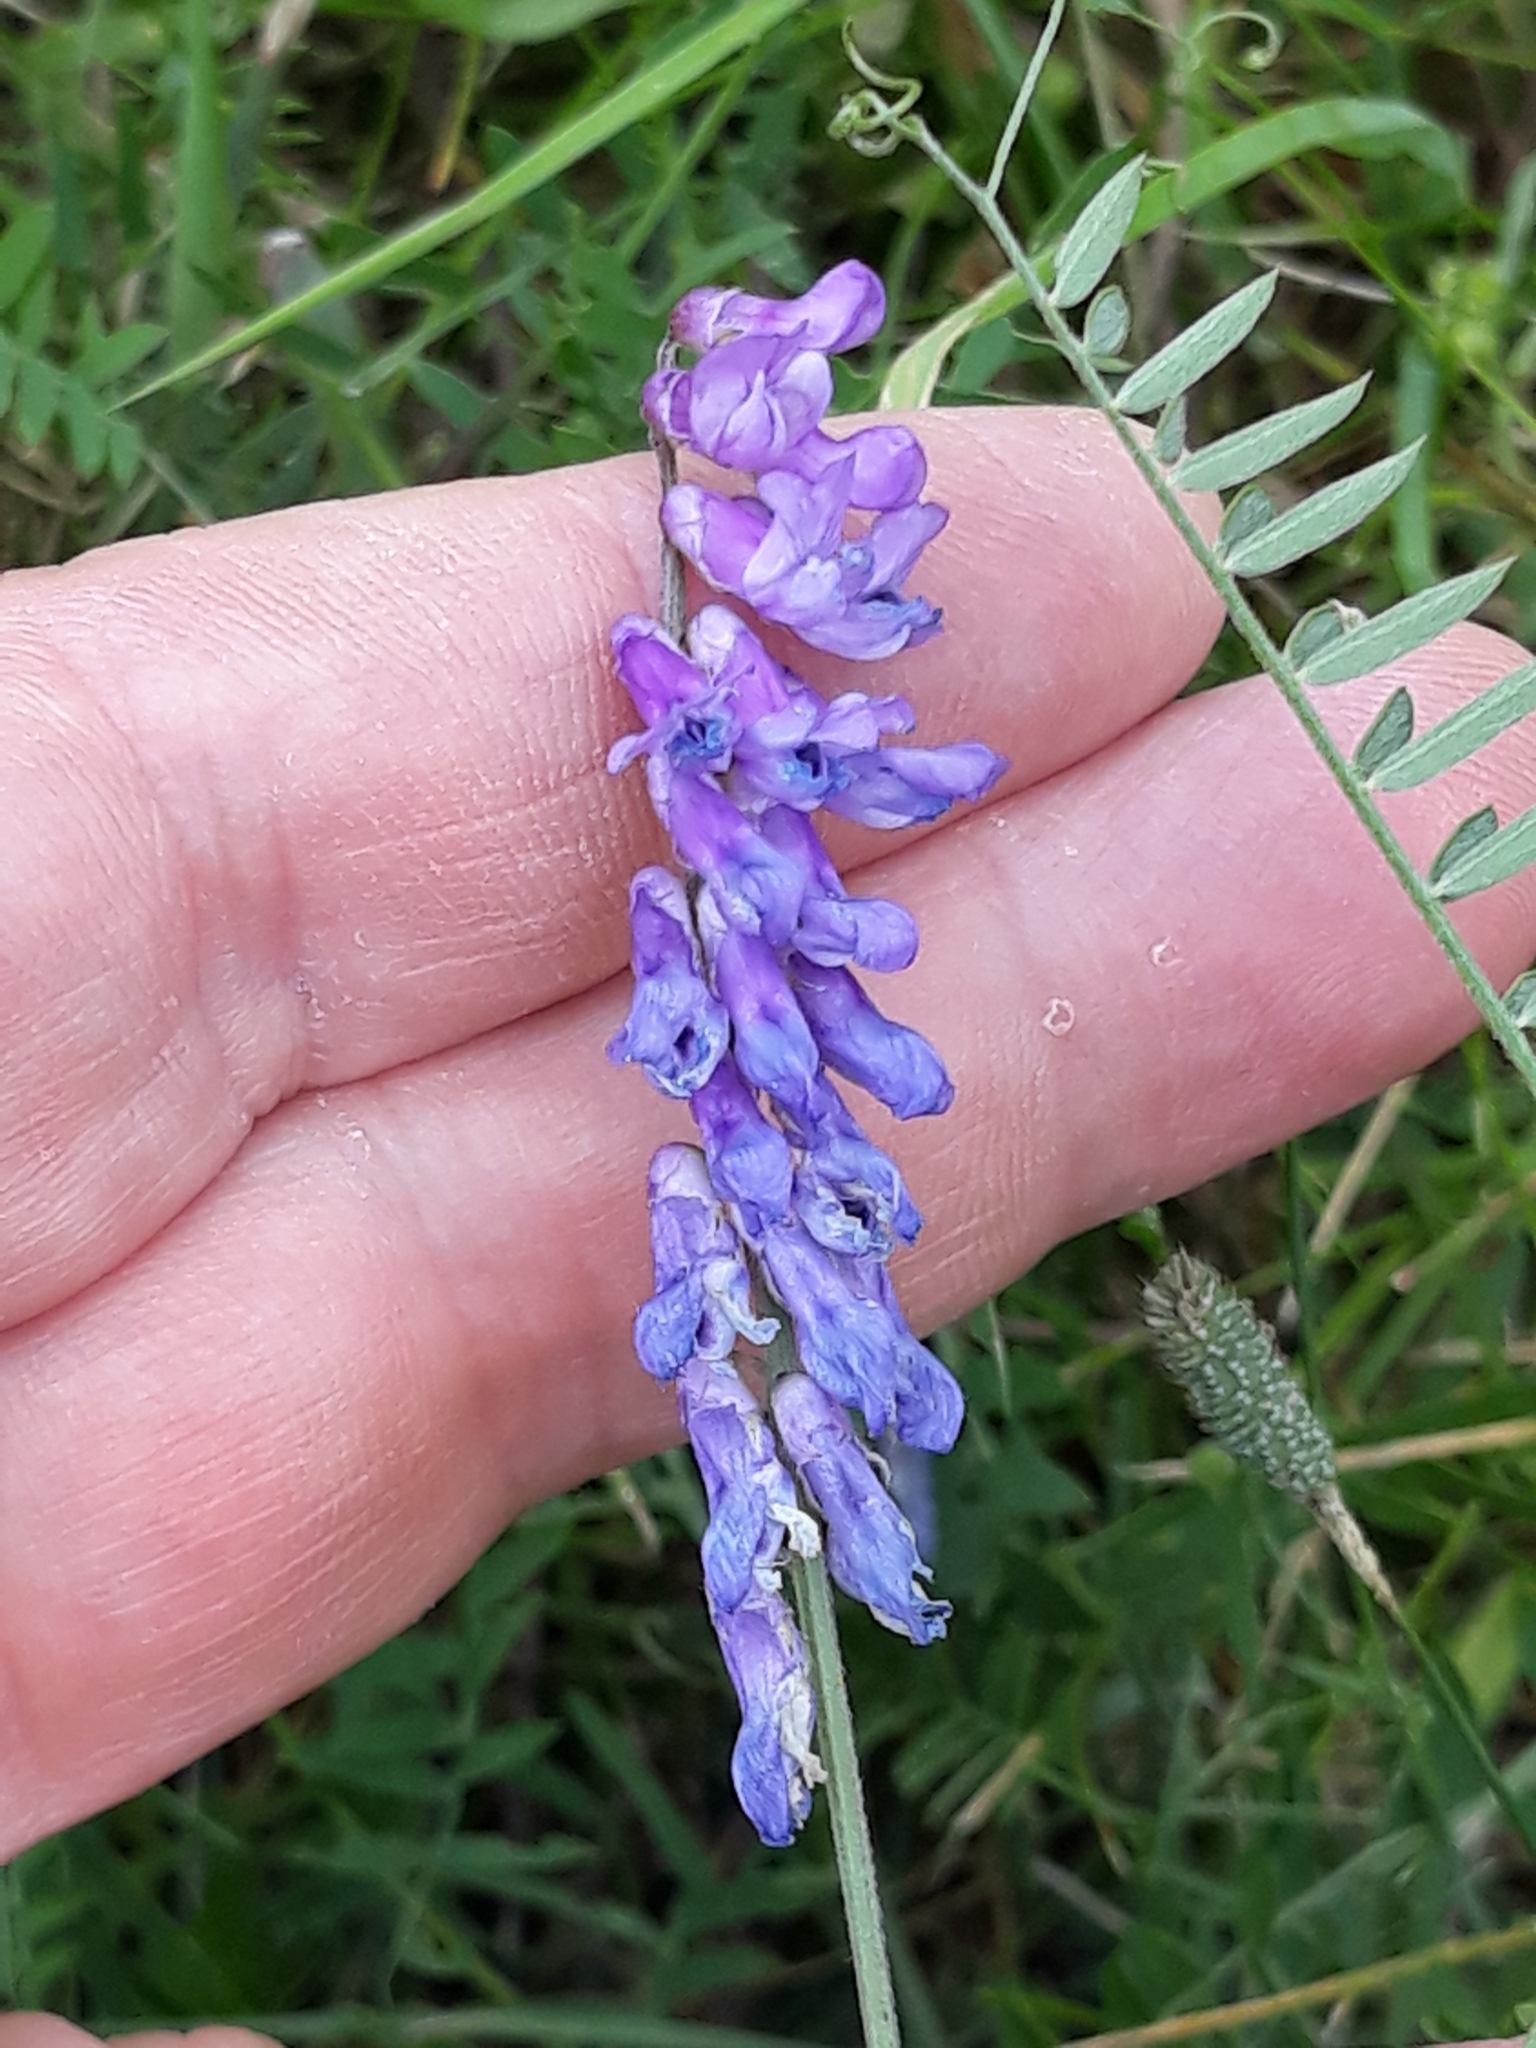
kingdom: Plantae
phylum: Tracheophyta
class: Magnoliopsida
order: Fabales
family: Fabaceae
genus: Vicia
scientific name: Vicia cracca
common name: Bird vetch
